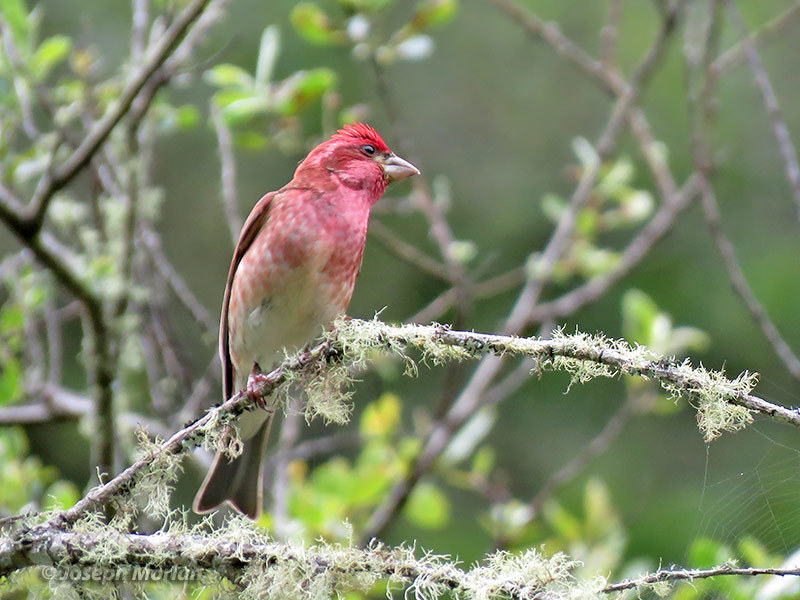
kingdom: Animalia
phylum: Chordata
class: Aves
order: Passeriformes
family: Fringillidae
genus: Haemorhous
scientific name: Haemorhous purpureus
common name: Purple finch
